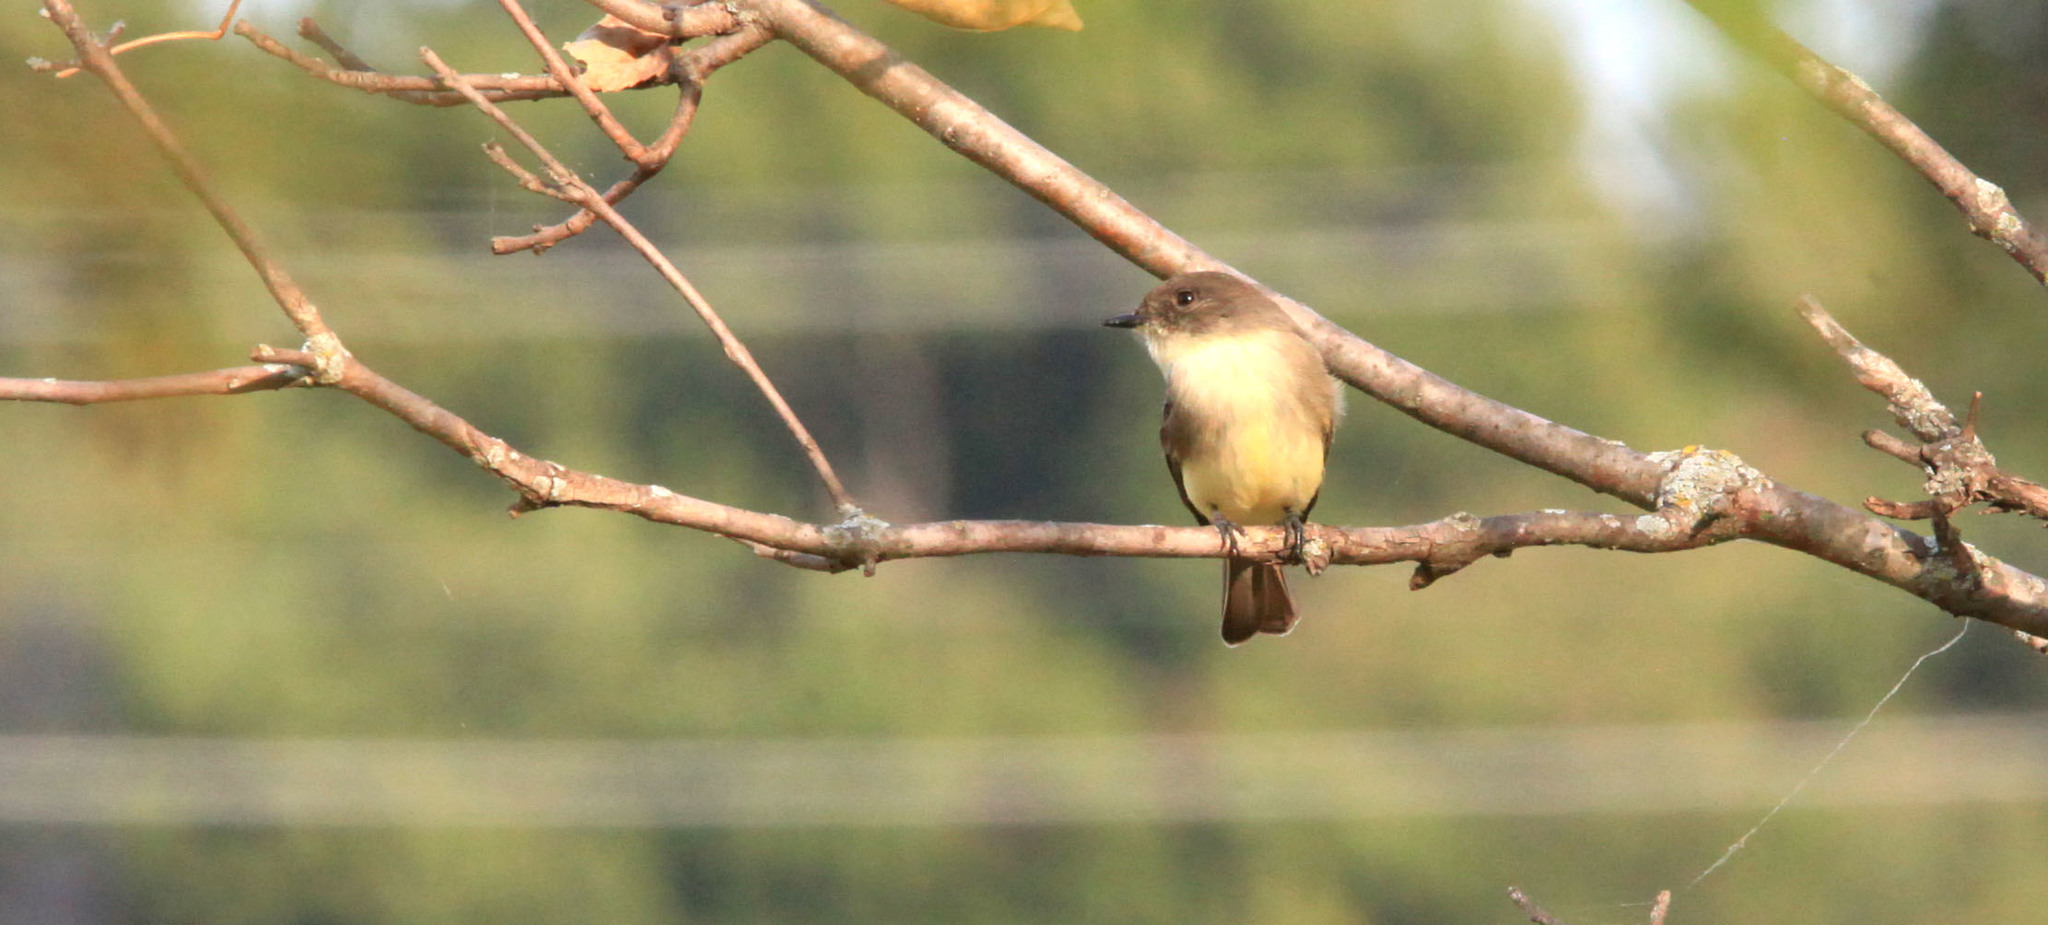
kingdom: Animalia
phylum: Chordata
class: Aves
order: Passeriformes
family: Tyrannidae
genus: Sayornis
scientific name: Sayornis phoebe
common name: Eastern phoebe
